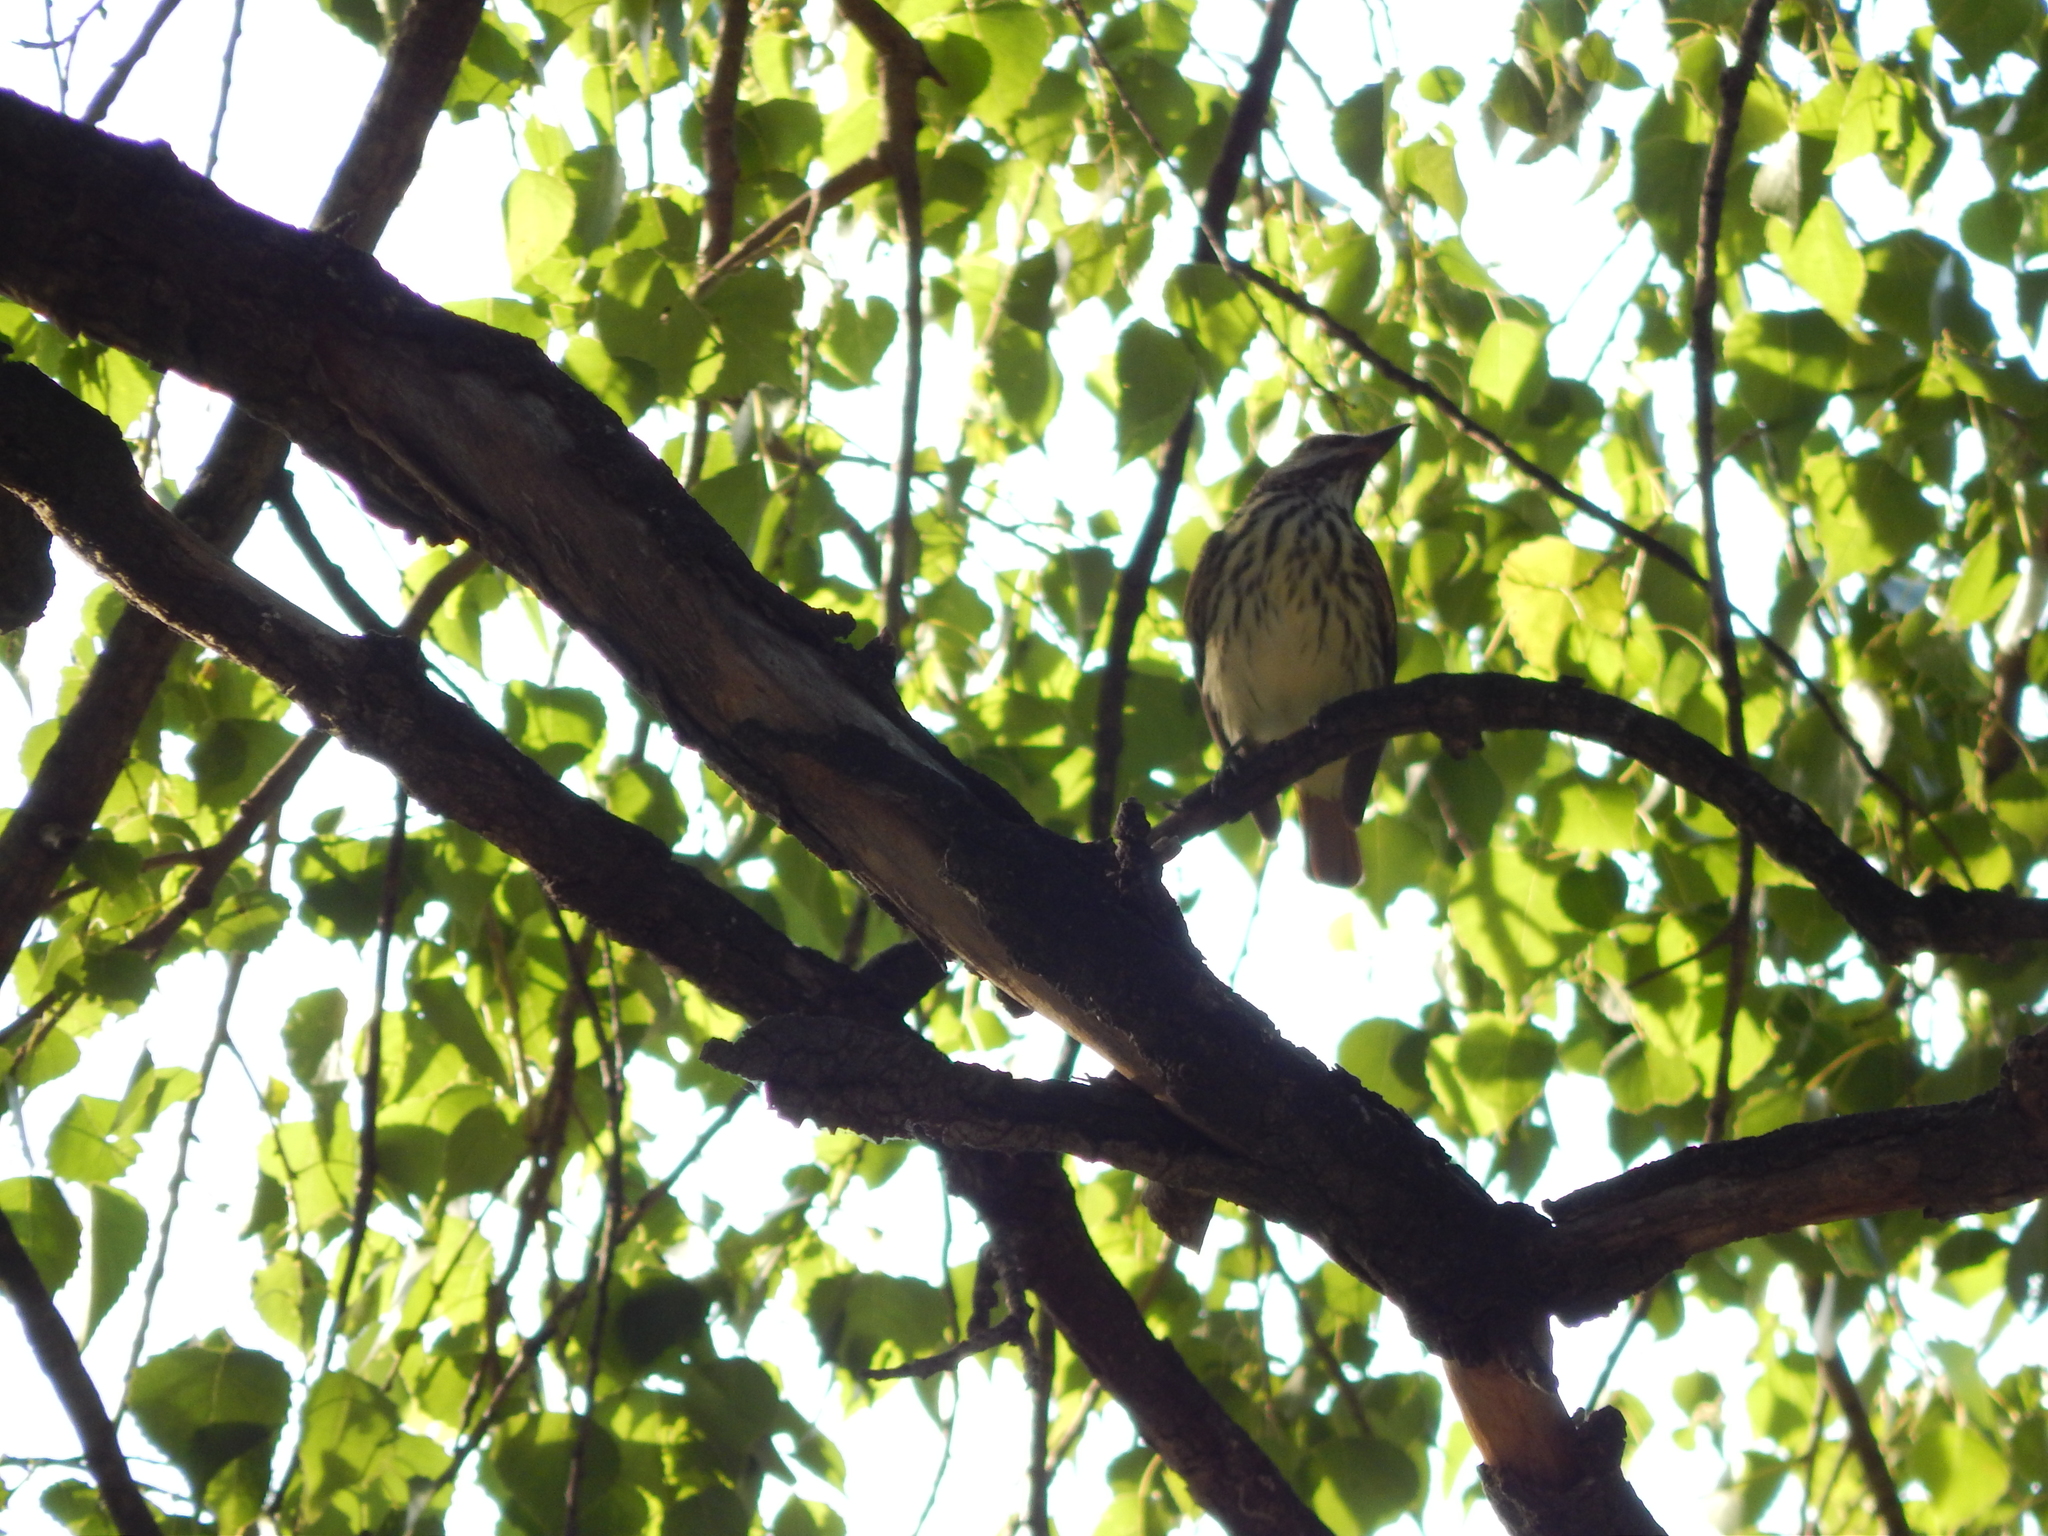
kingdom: Animalia
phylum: Chordata
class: Aves
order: Passeriformes
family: Tyrannidae
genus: Myiodynastes
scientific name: Myiodynastes luteiventris
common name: Sulphur-bellied flycatcher
